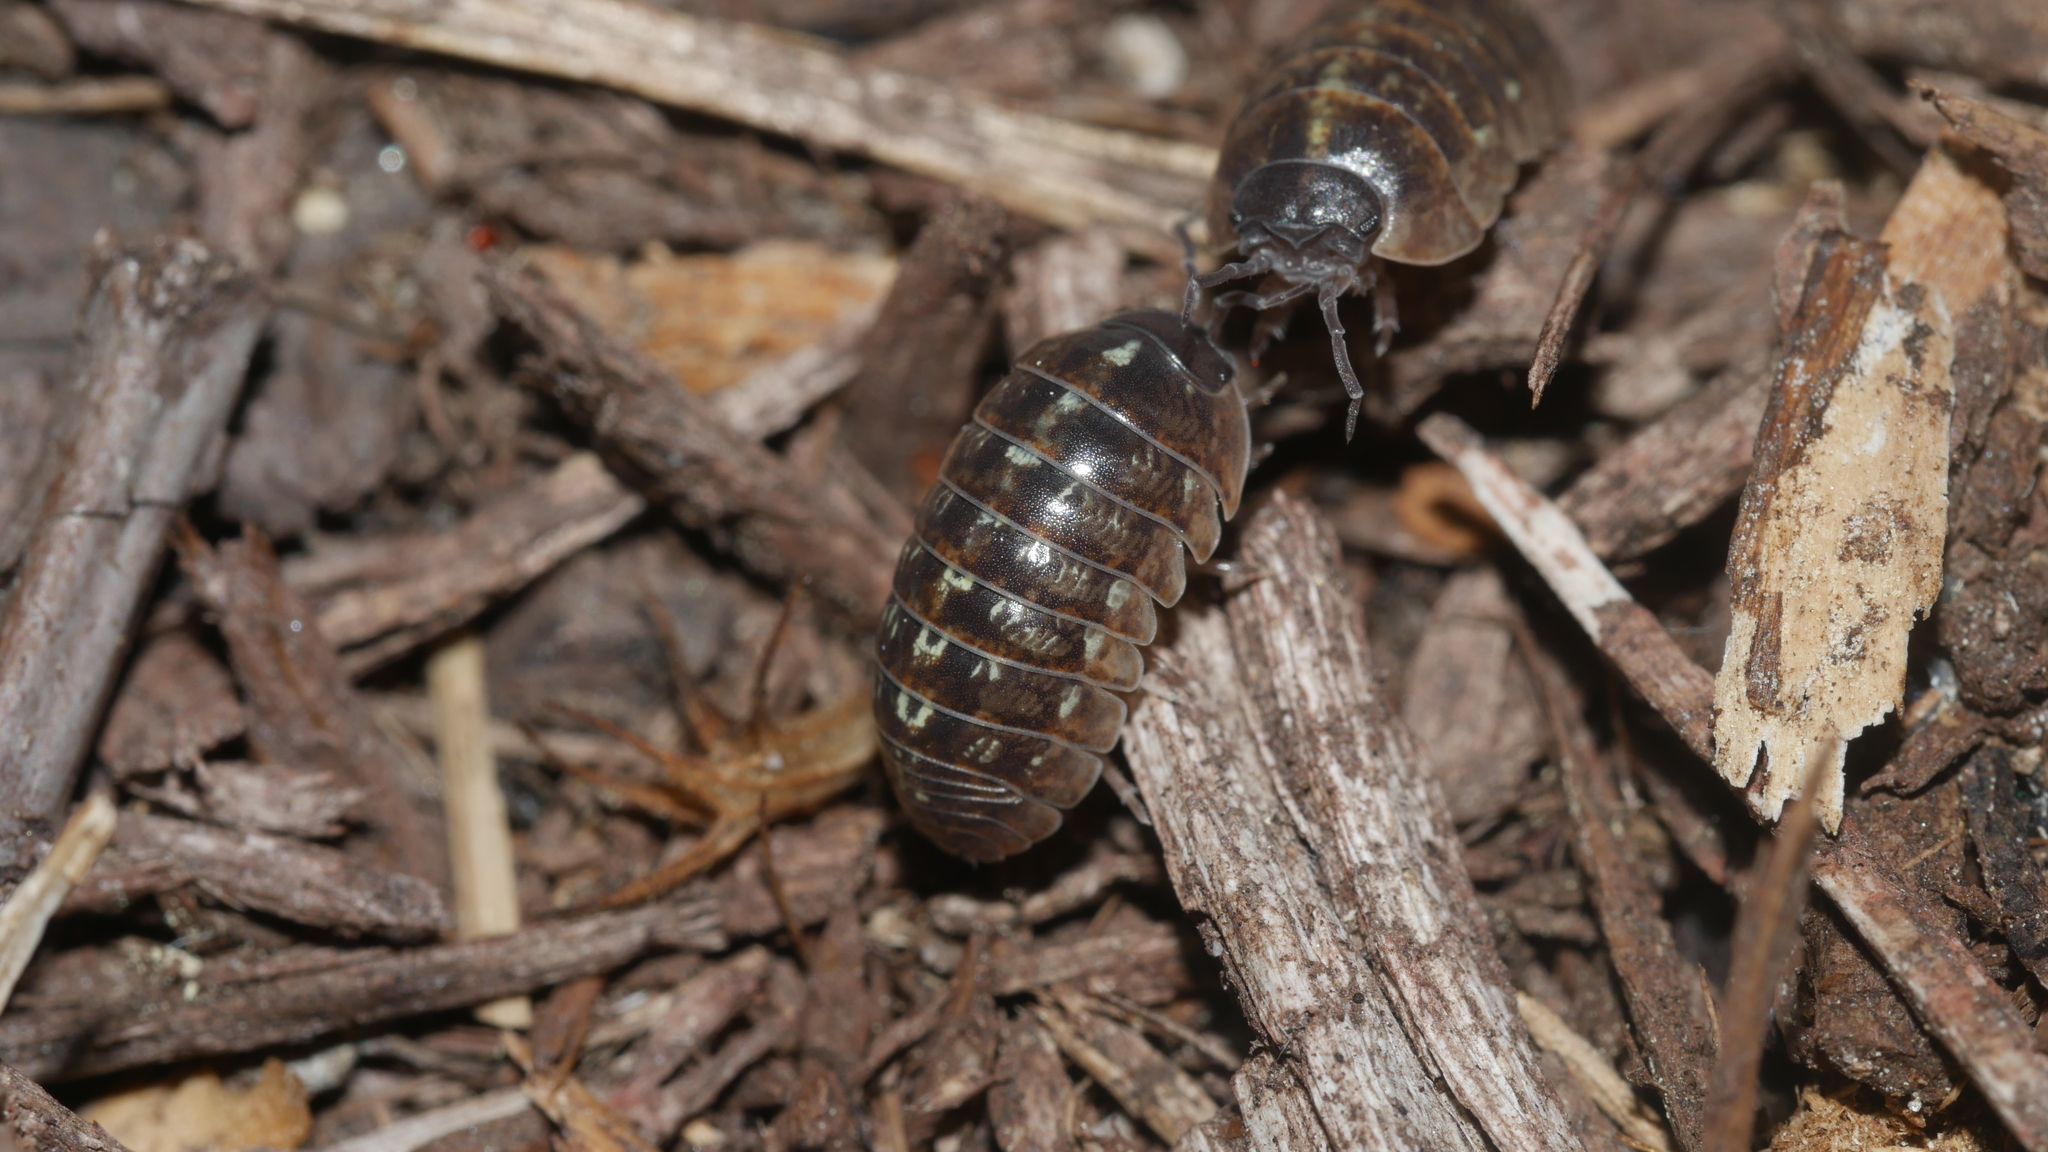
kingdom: Animalia
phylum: Arthropoda
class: Malacostraca
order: Isopoda
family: Armadillidiidae
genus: Armadillidium
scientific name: Armadillidium vulgare
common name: Common pill woodlouse
